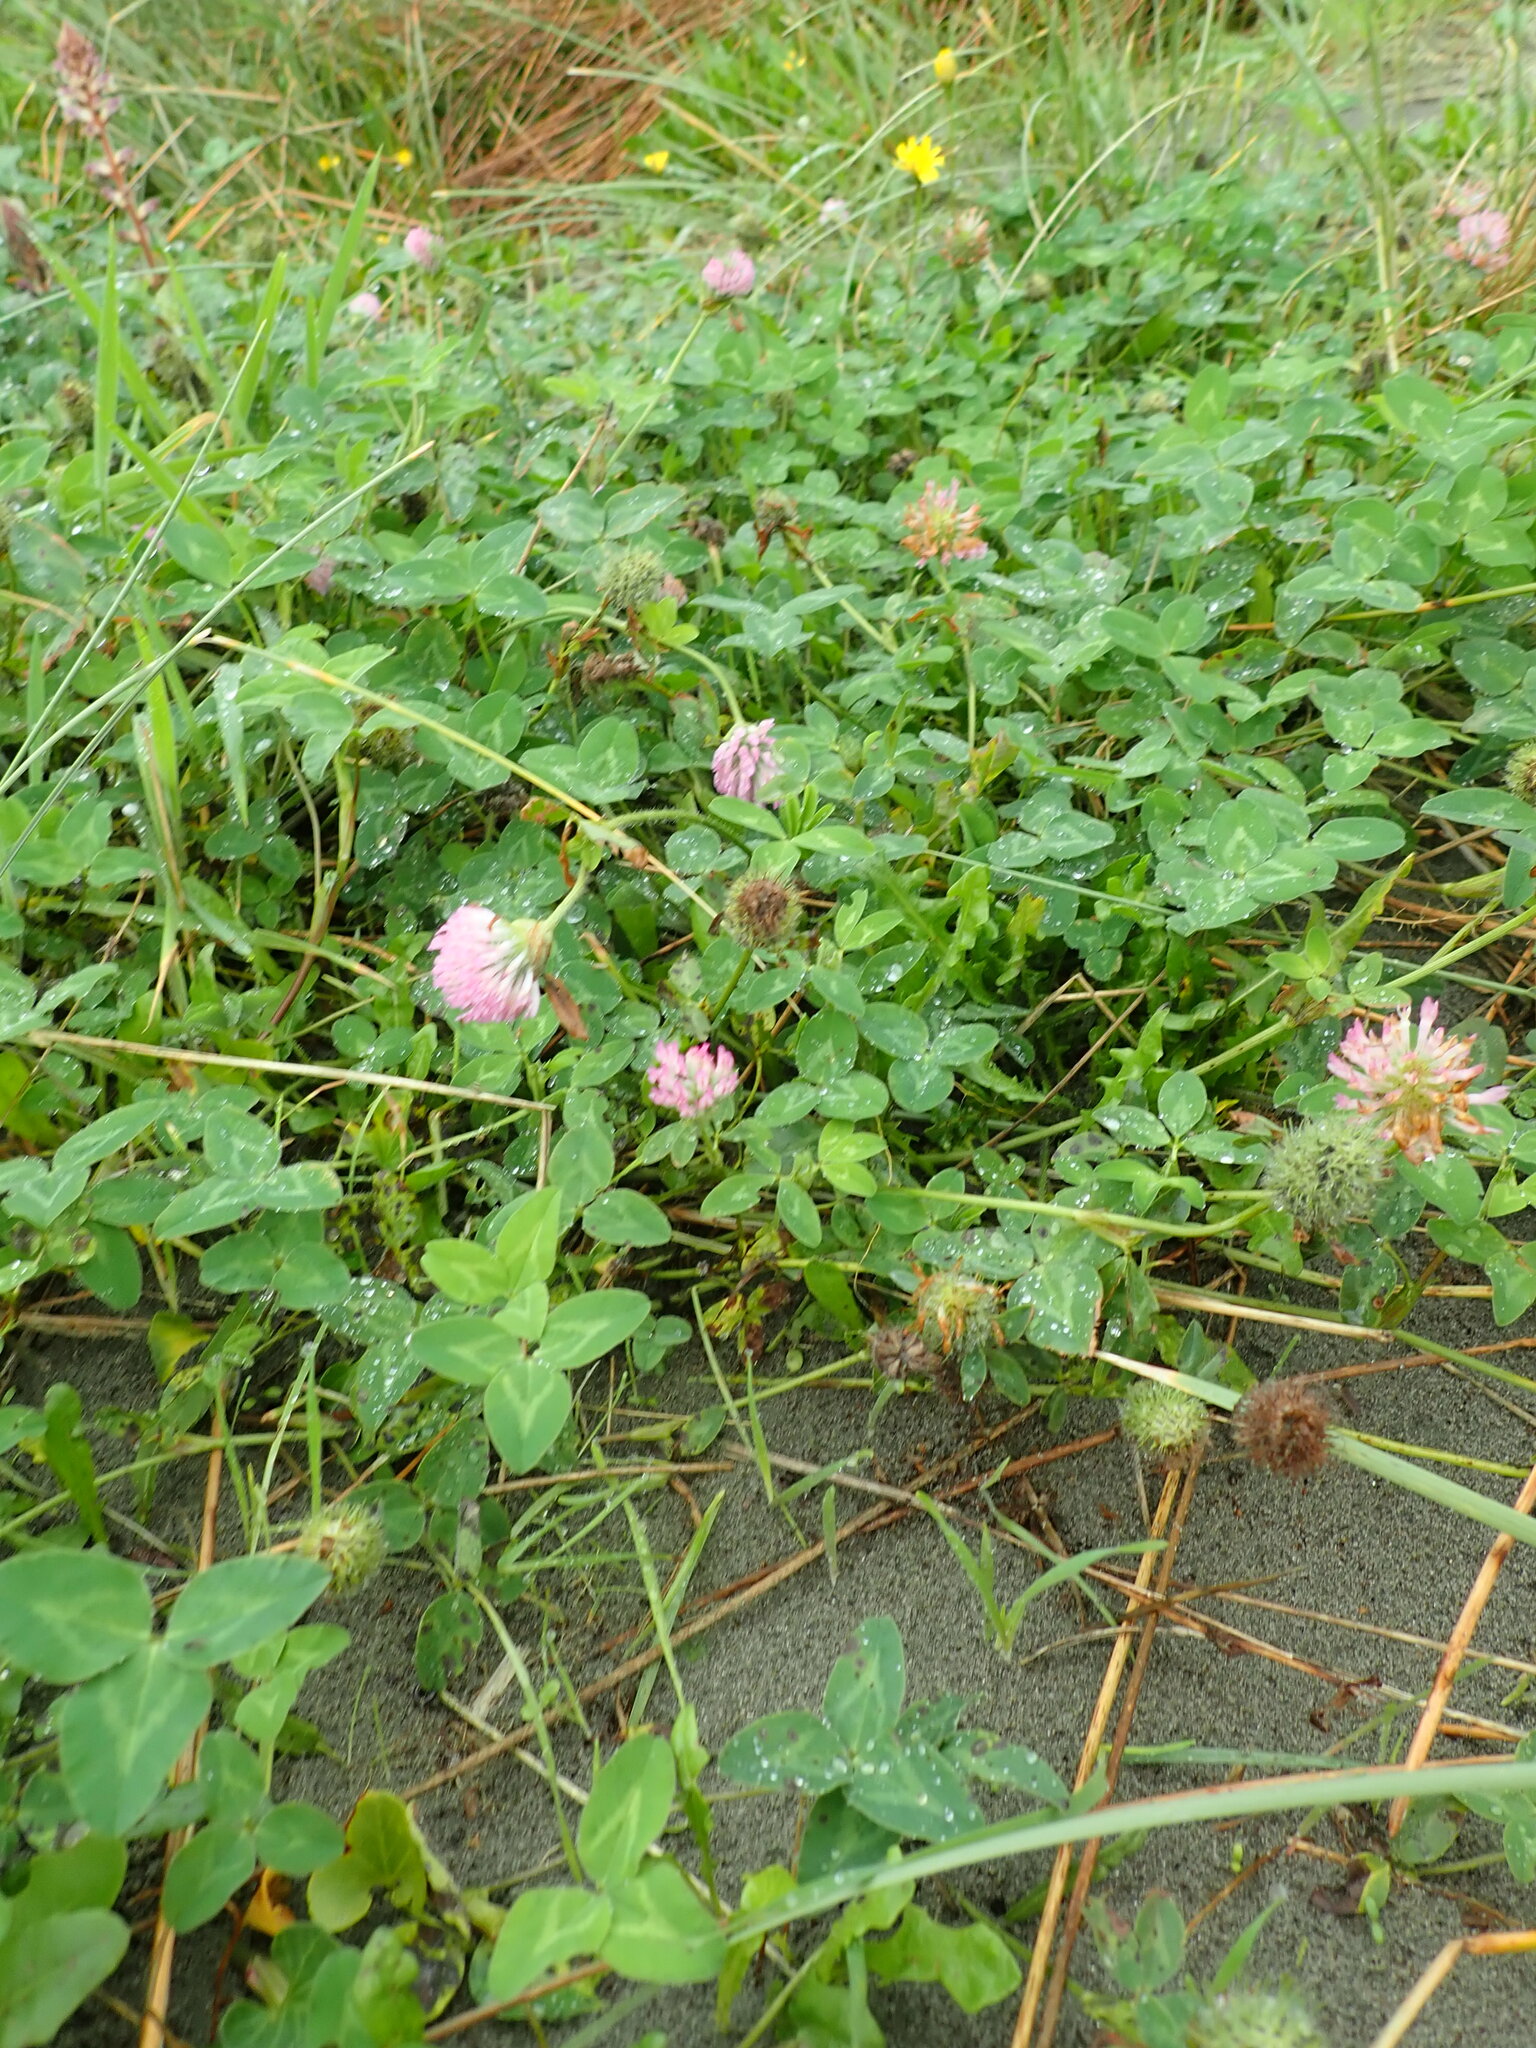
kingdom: Plantae
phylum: Tracheophyta
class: Magnoliopsida
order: Fabales
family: Fabaceae
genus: Trifolium
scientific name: Trifolium pratense
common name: Red clover
